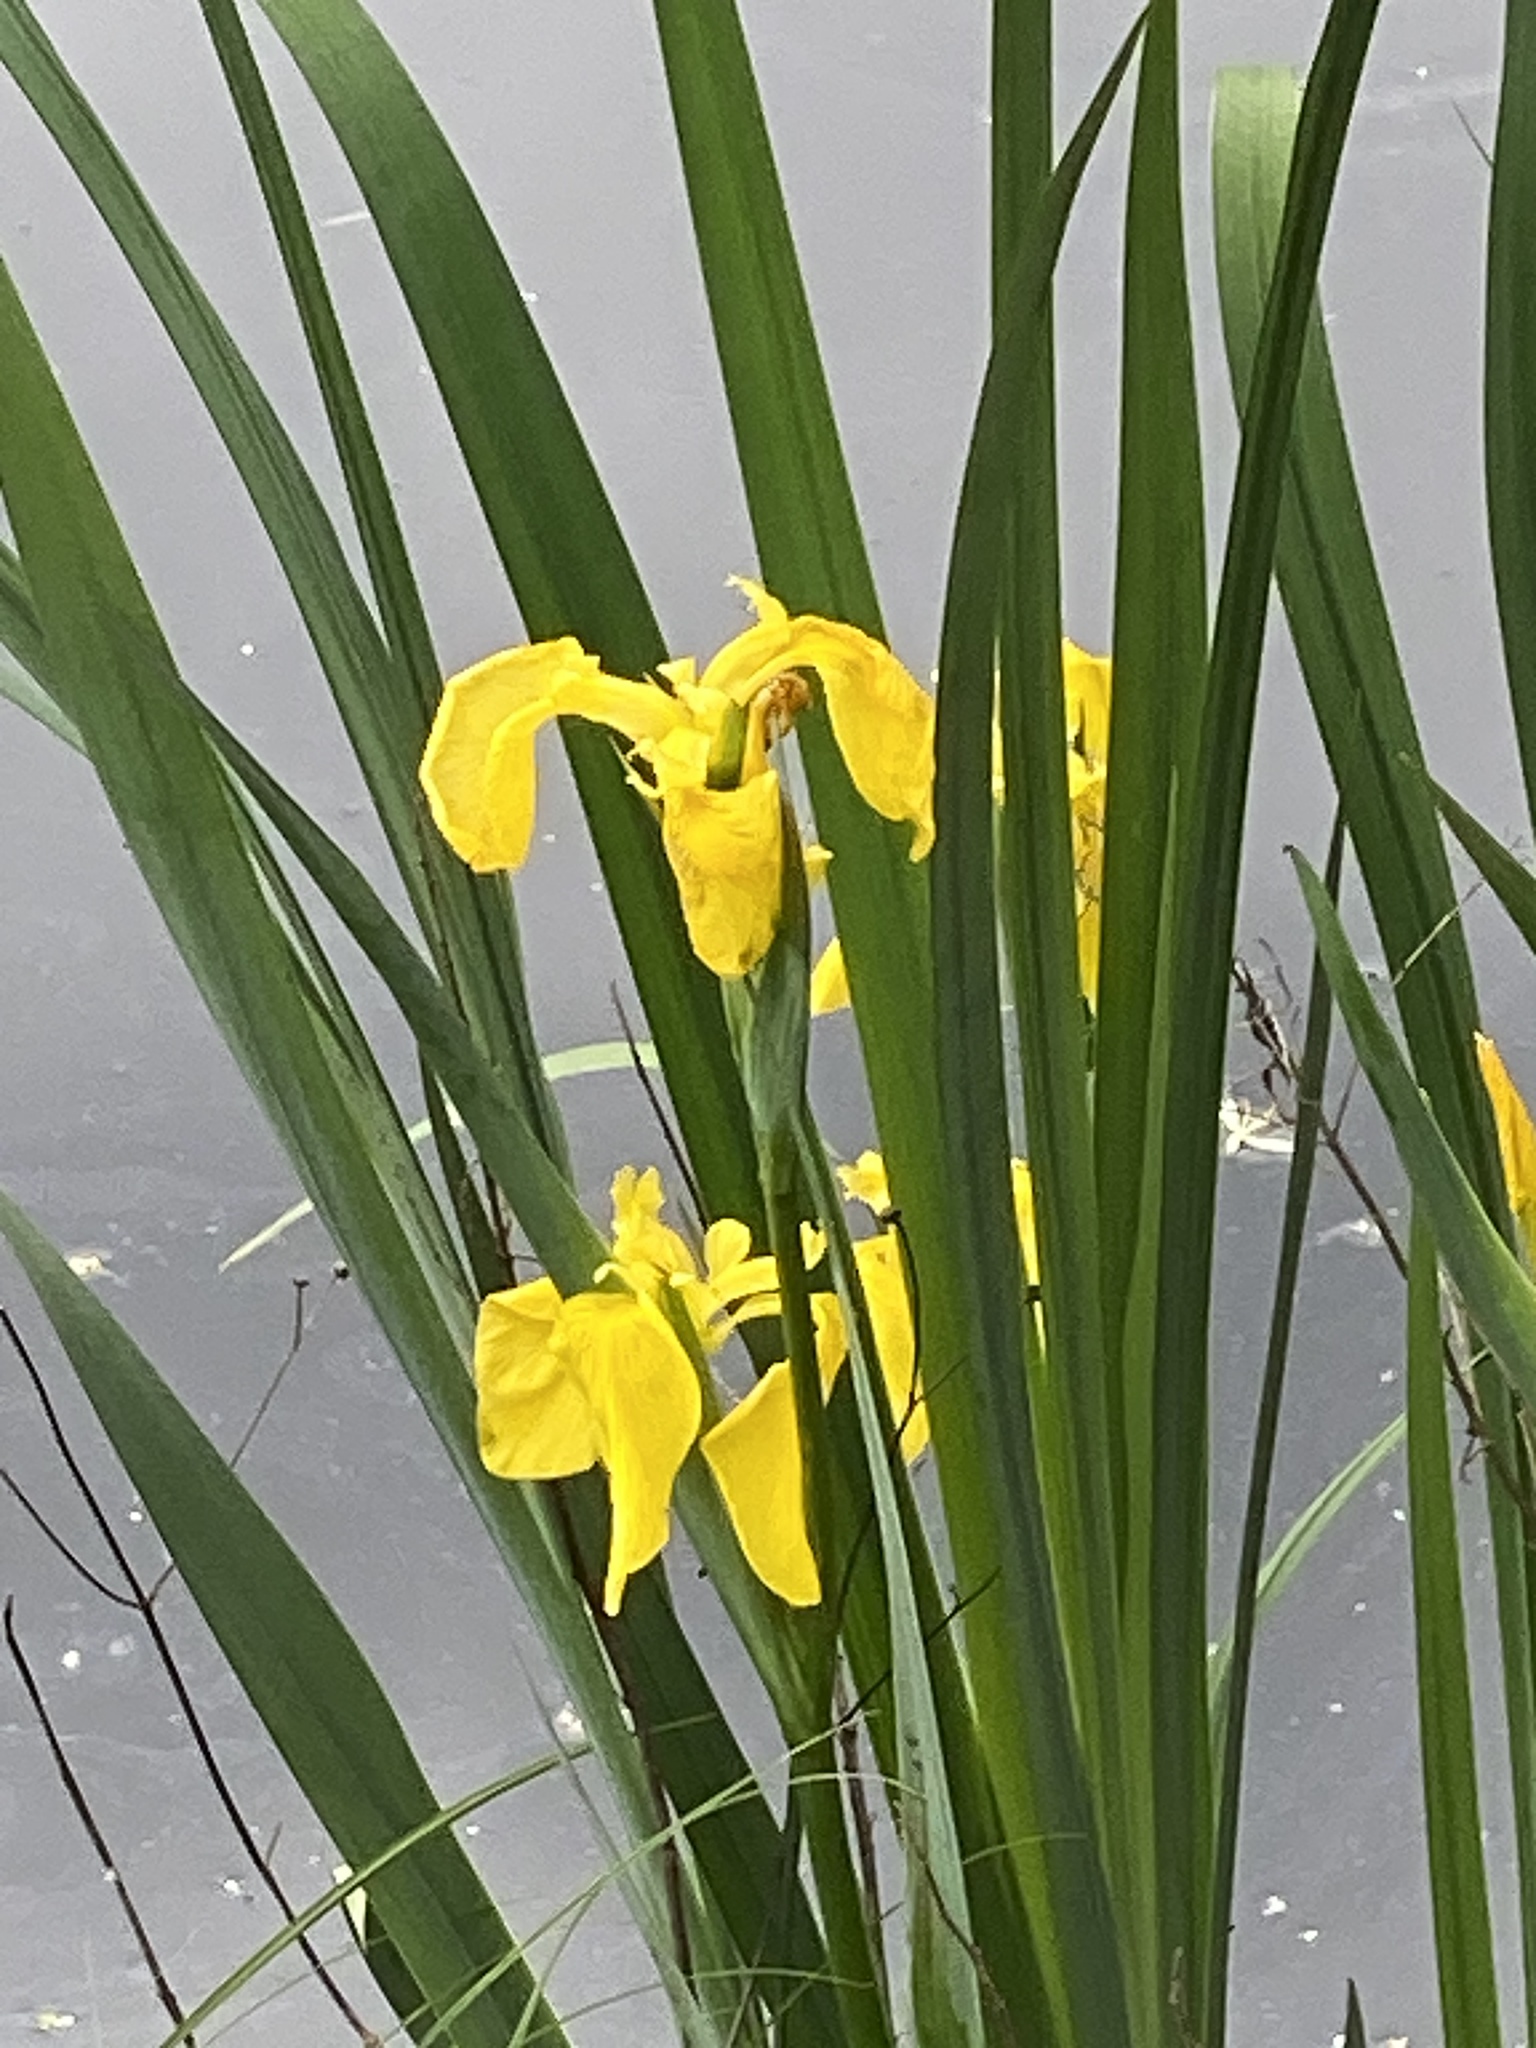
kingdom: Plantae
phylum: Tracheophyta
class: Liliopsida
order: Asparagales
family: Iridaceae
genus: Iris
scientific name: Iris pseudacorus
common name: Yellow flag
